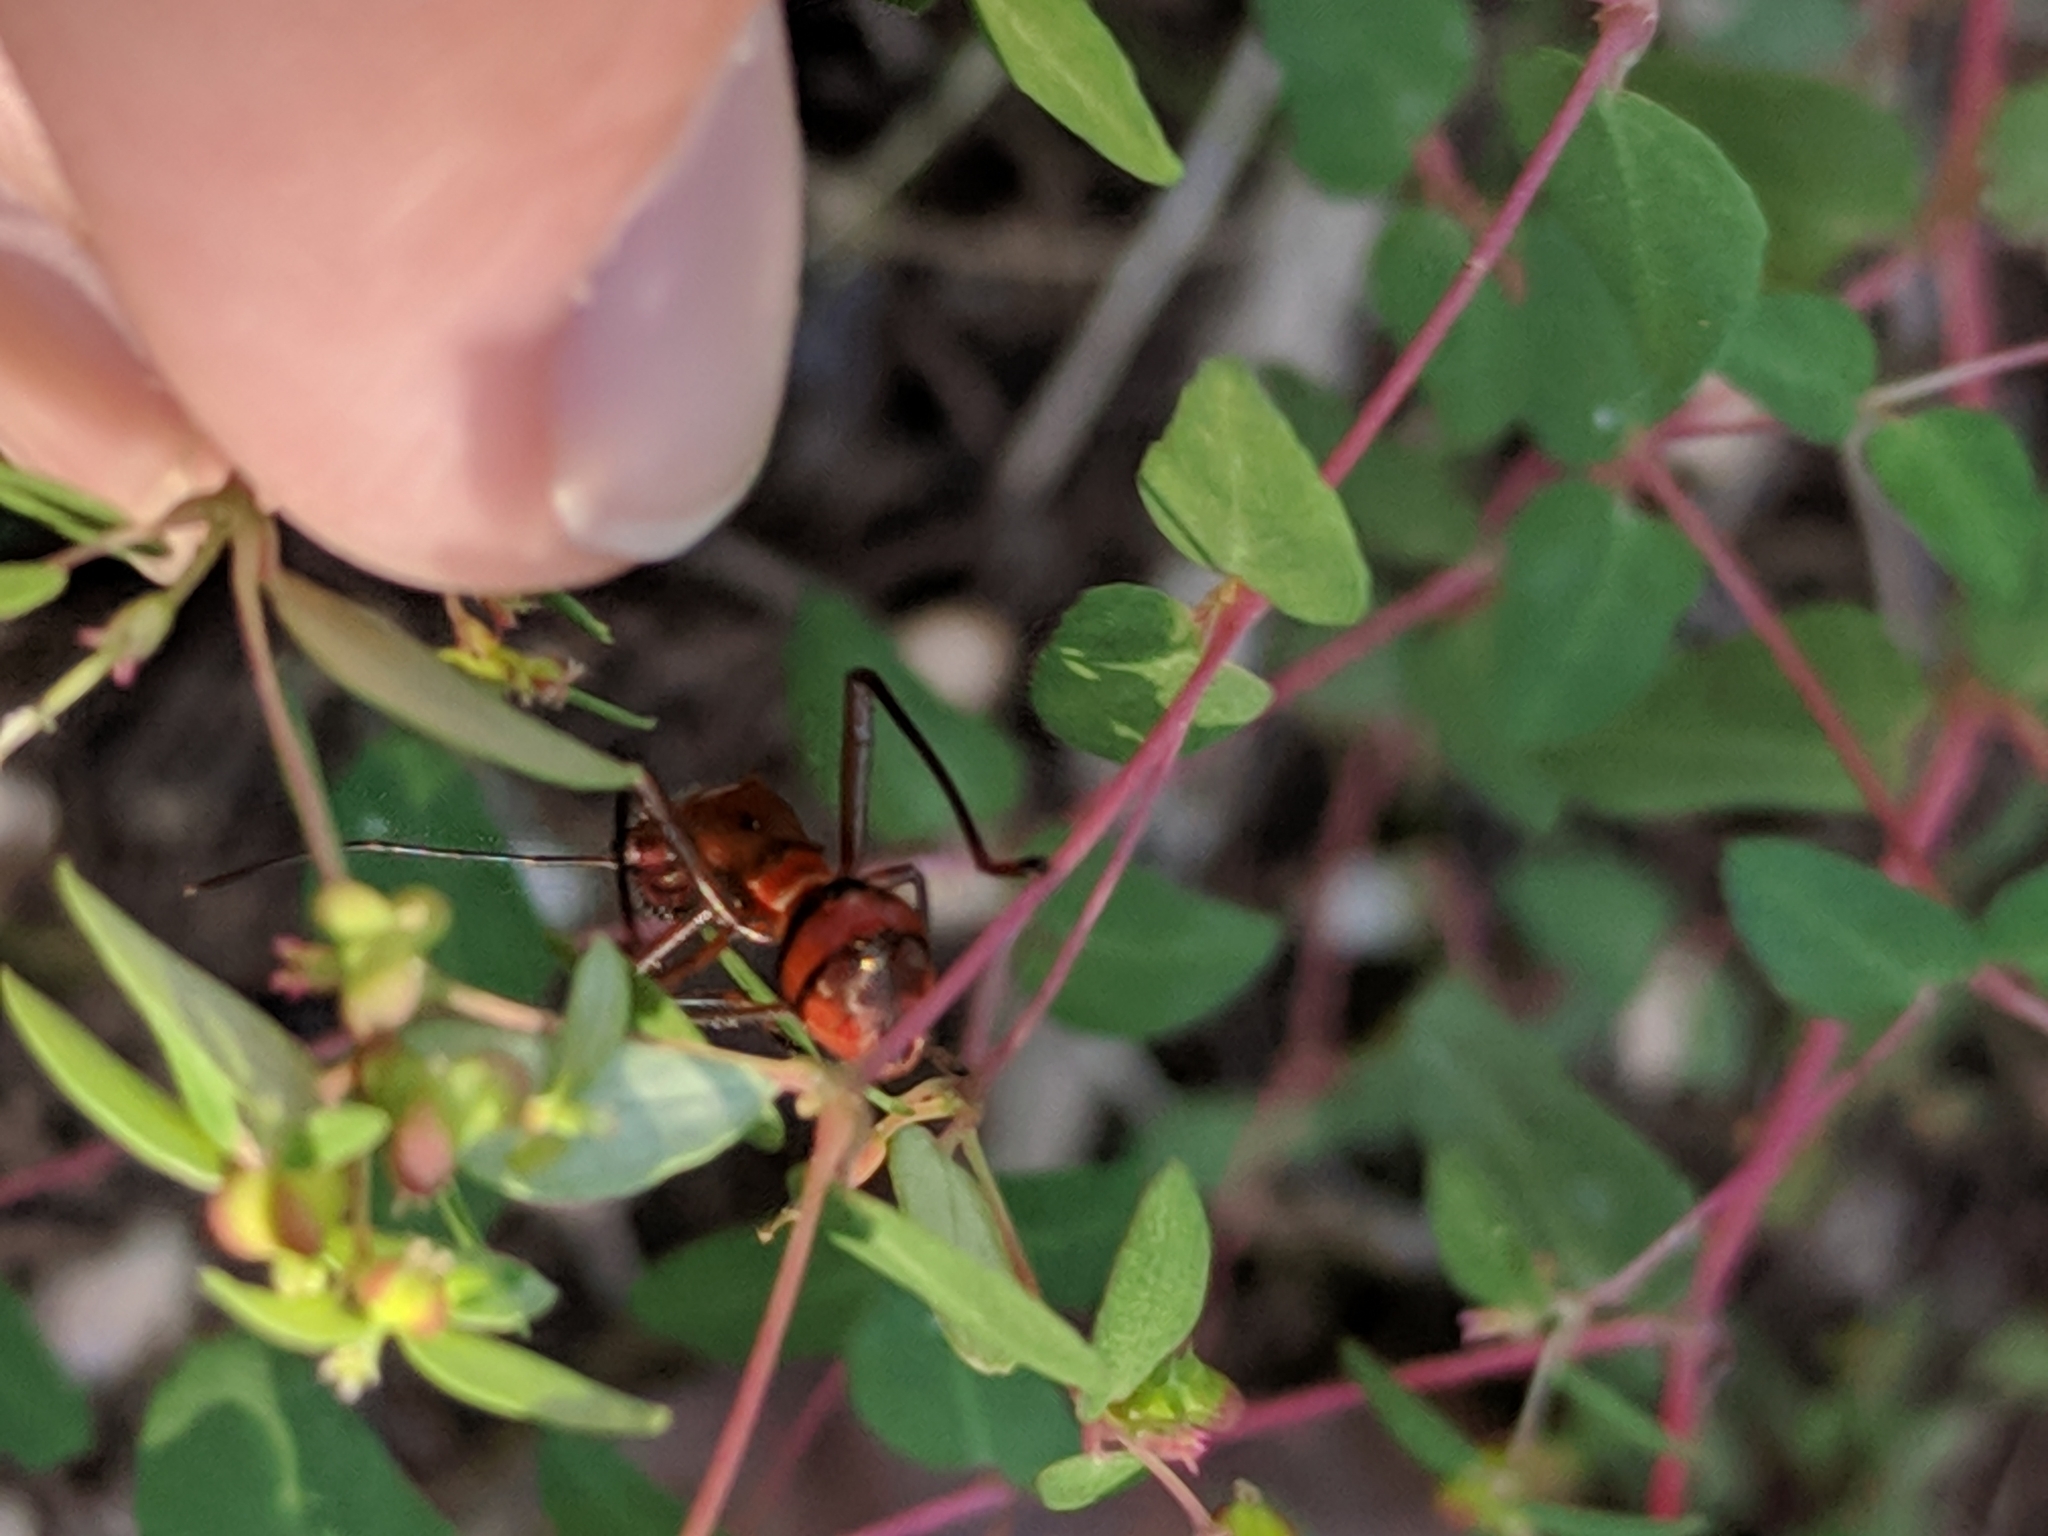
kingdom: Animalia
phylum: Arthropoda
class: Insecta
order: Hemiptera
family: Alydidae
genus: Hyalymenus
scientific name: Hyalymenus tarsatus
